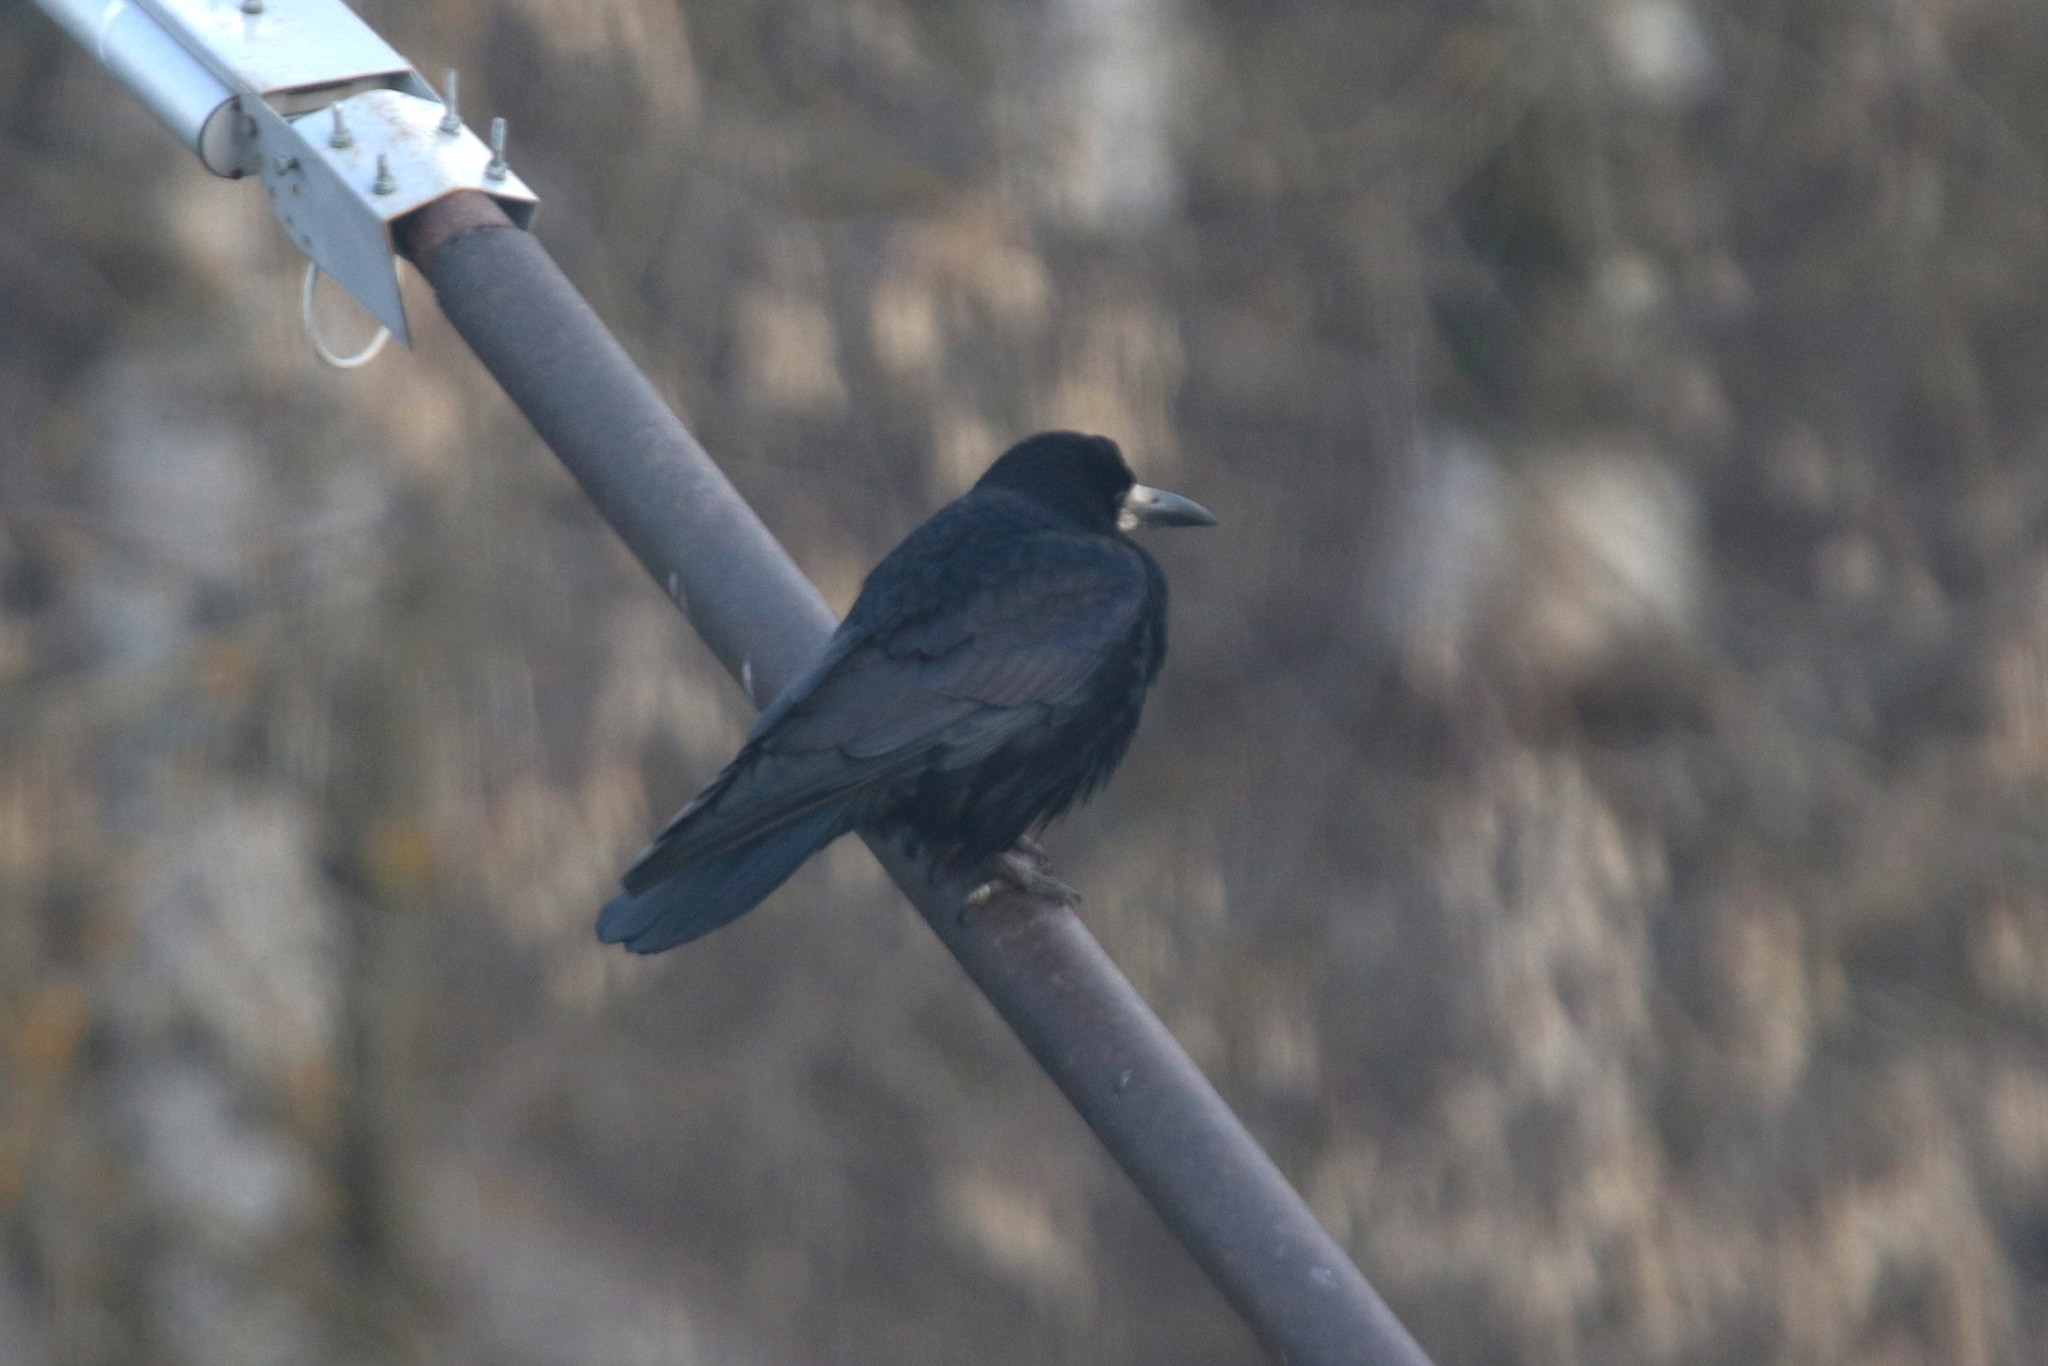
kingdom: Animalia
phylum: Chordata
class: Aves
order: Passeriformes
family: Corvidae
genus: Corvus
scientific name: Corvus frugilegus
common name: Rook
